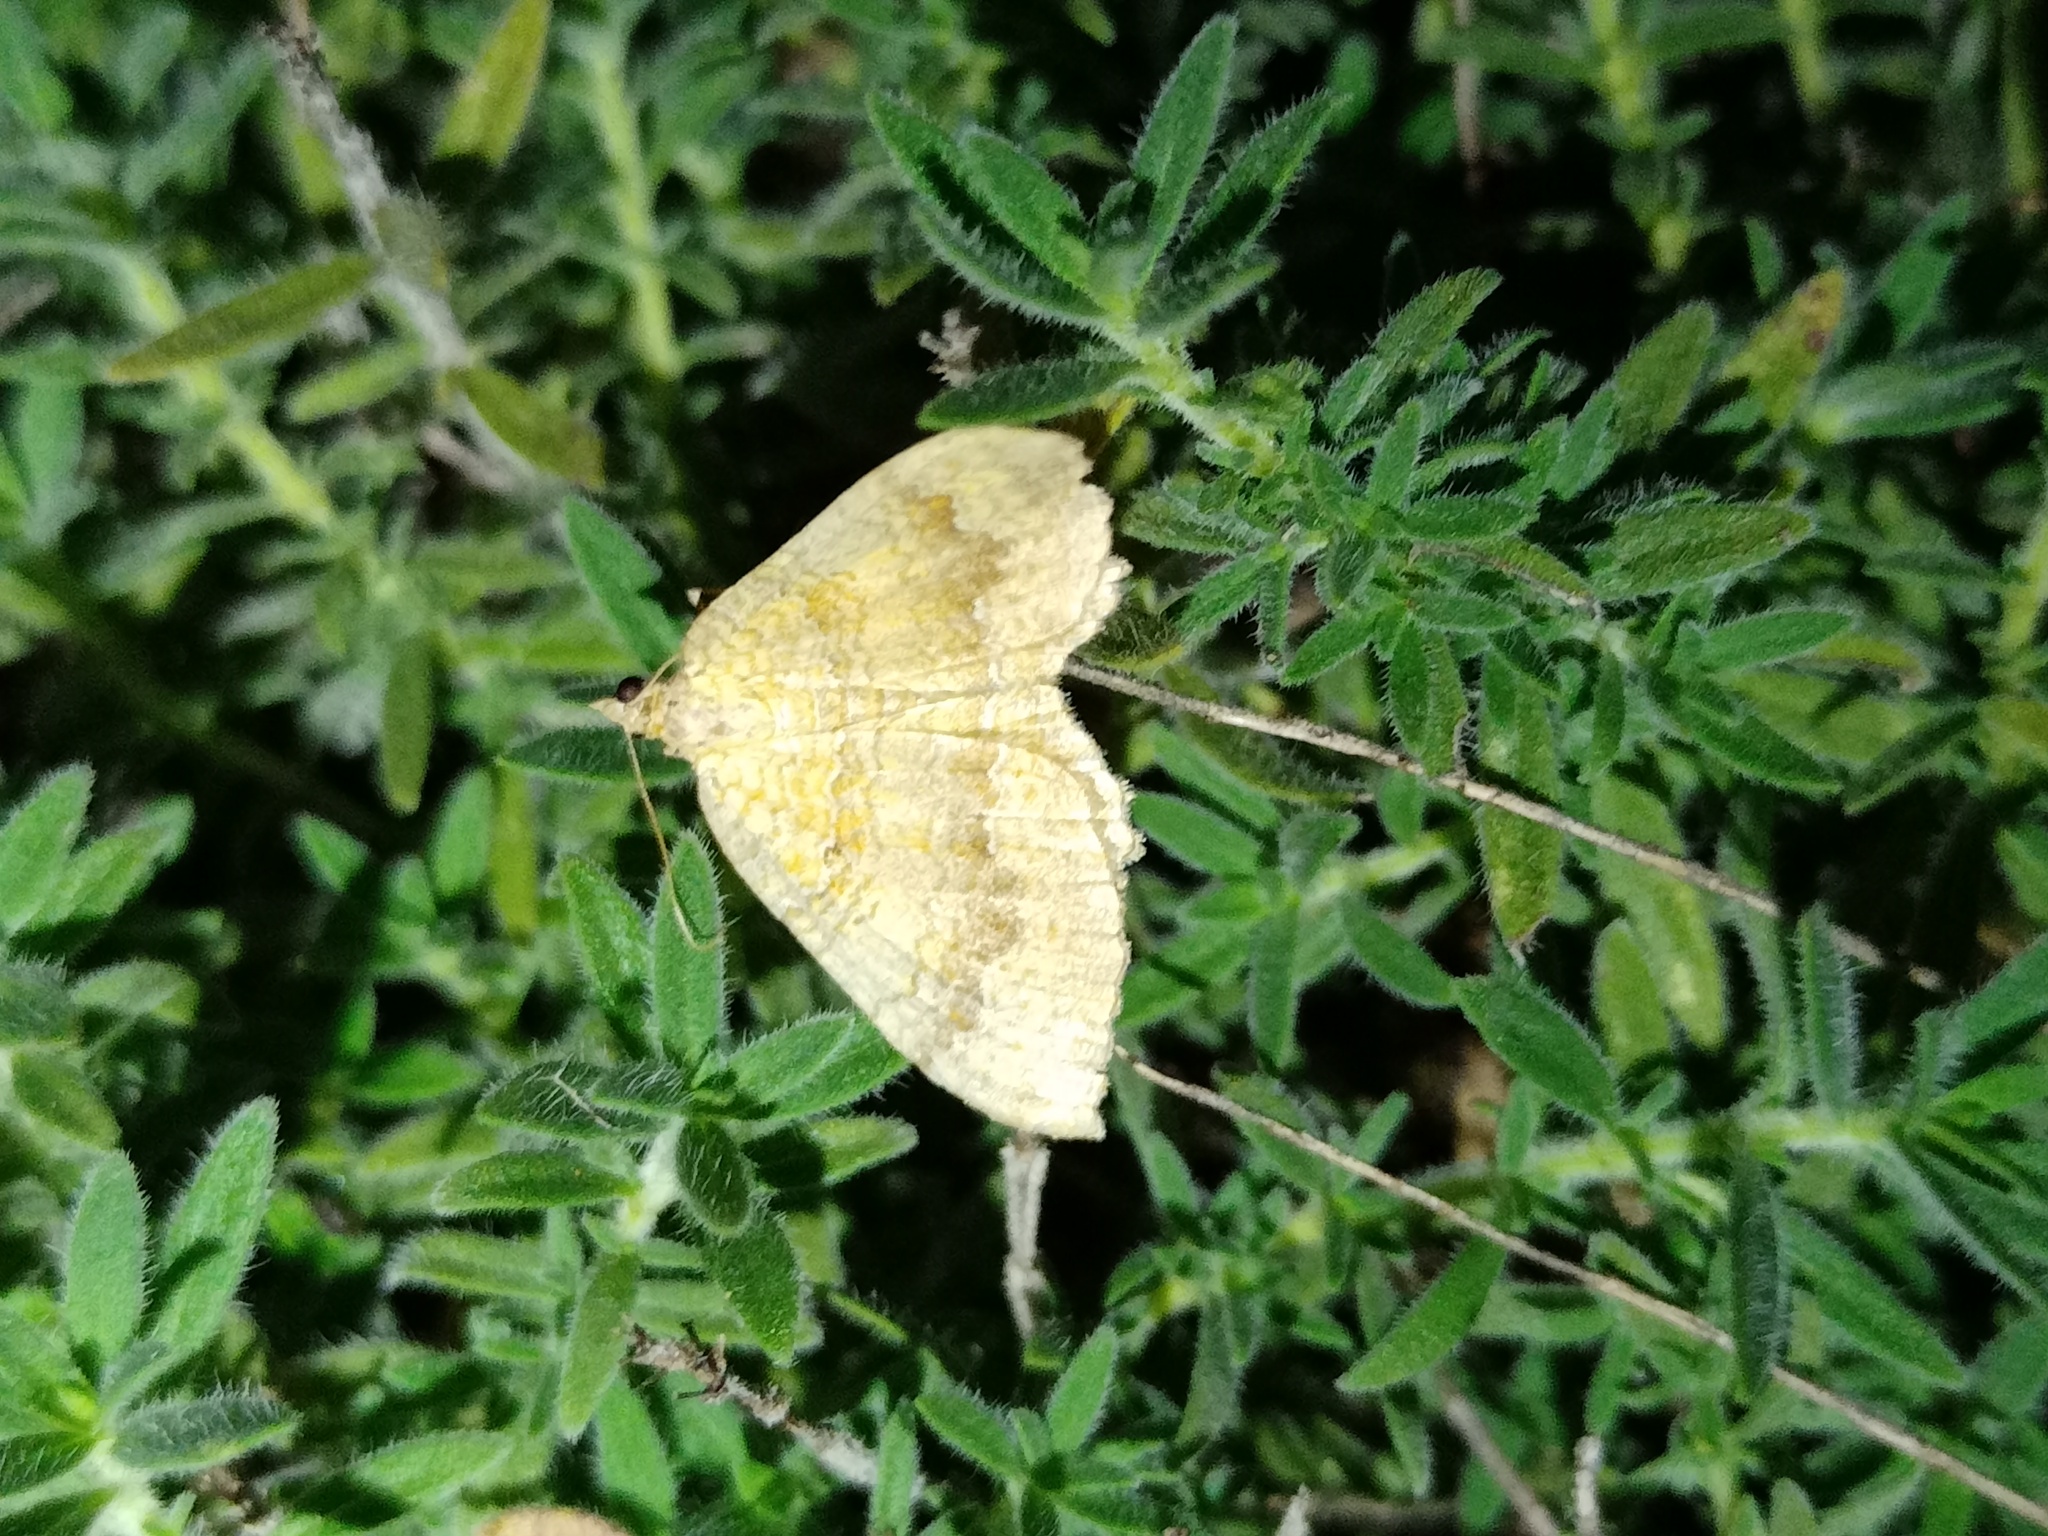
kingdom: Animalia
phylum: Arthropoda
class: Insecta
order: Lepidoptera
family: Geometridae
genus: Camptogramma
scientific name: Camptogramma bilineata
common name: Yellow shell
